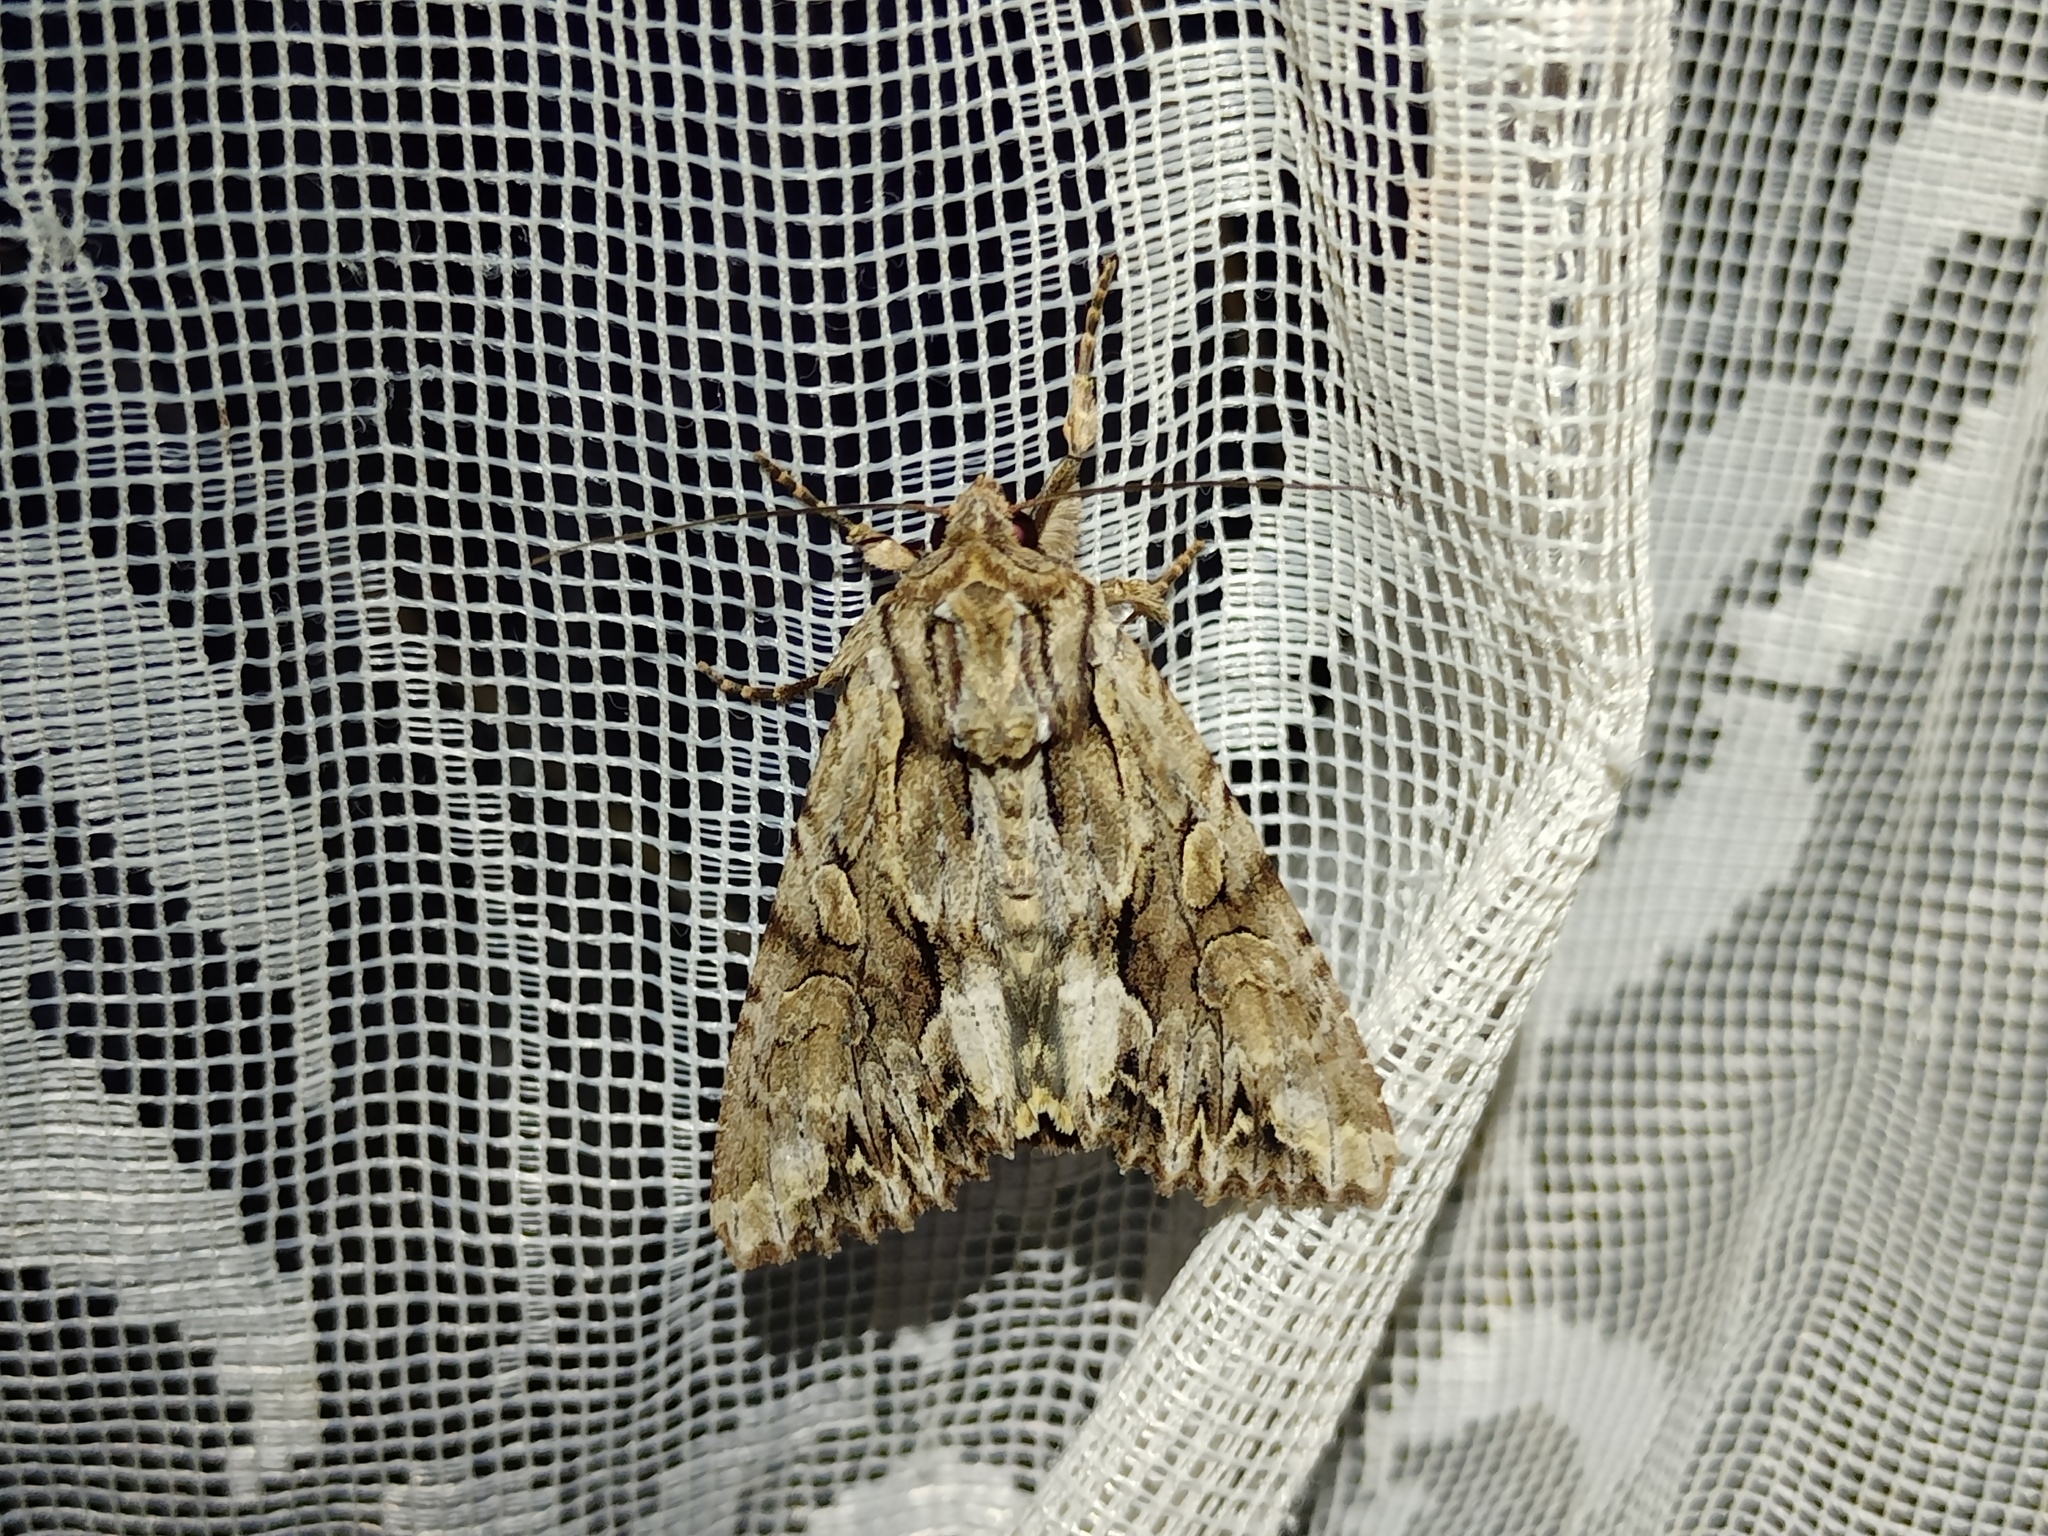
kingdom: Animalia
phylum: Arthropoda
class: Insecta
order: Lepidoptera
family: Noctuidae
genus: Apamea
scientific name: Apamea monoglypha
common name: Dark arches
